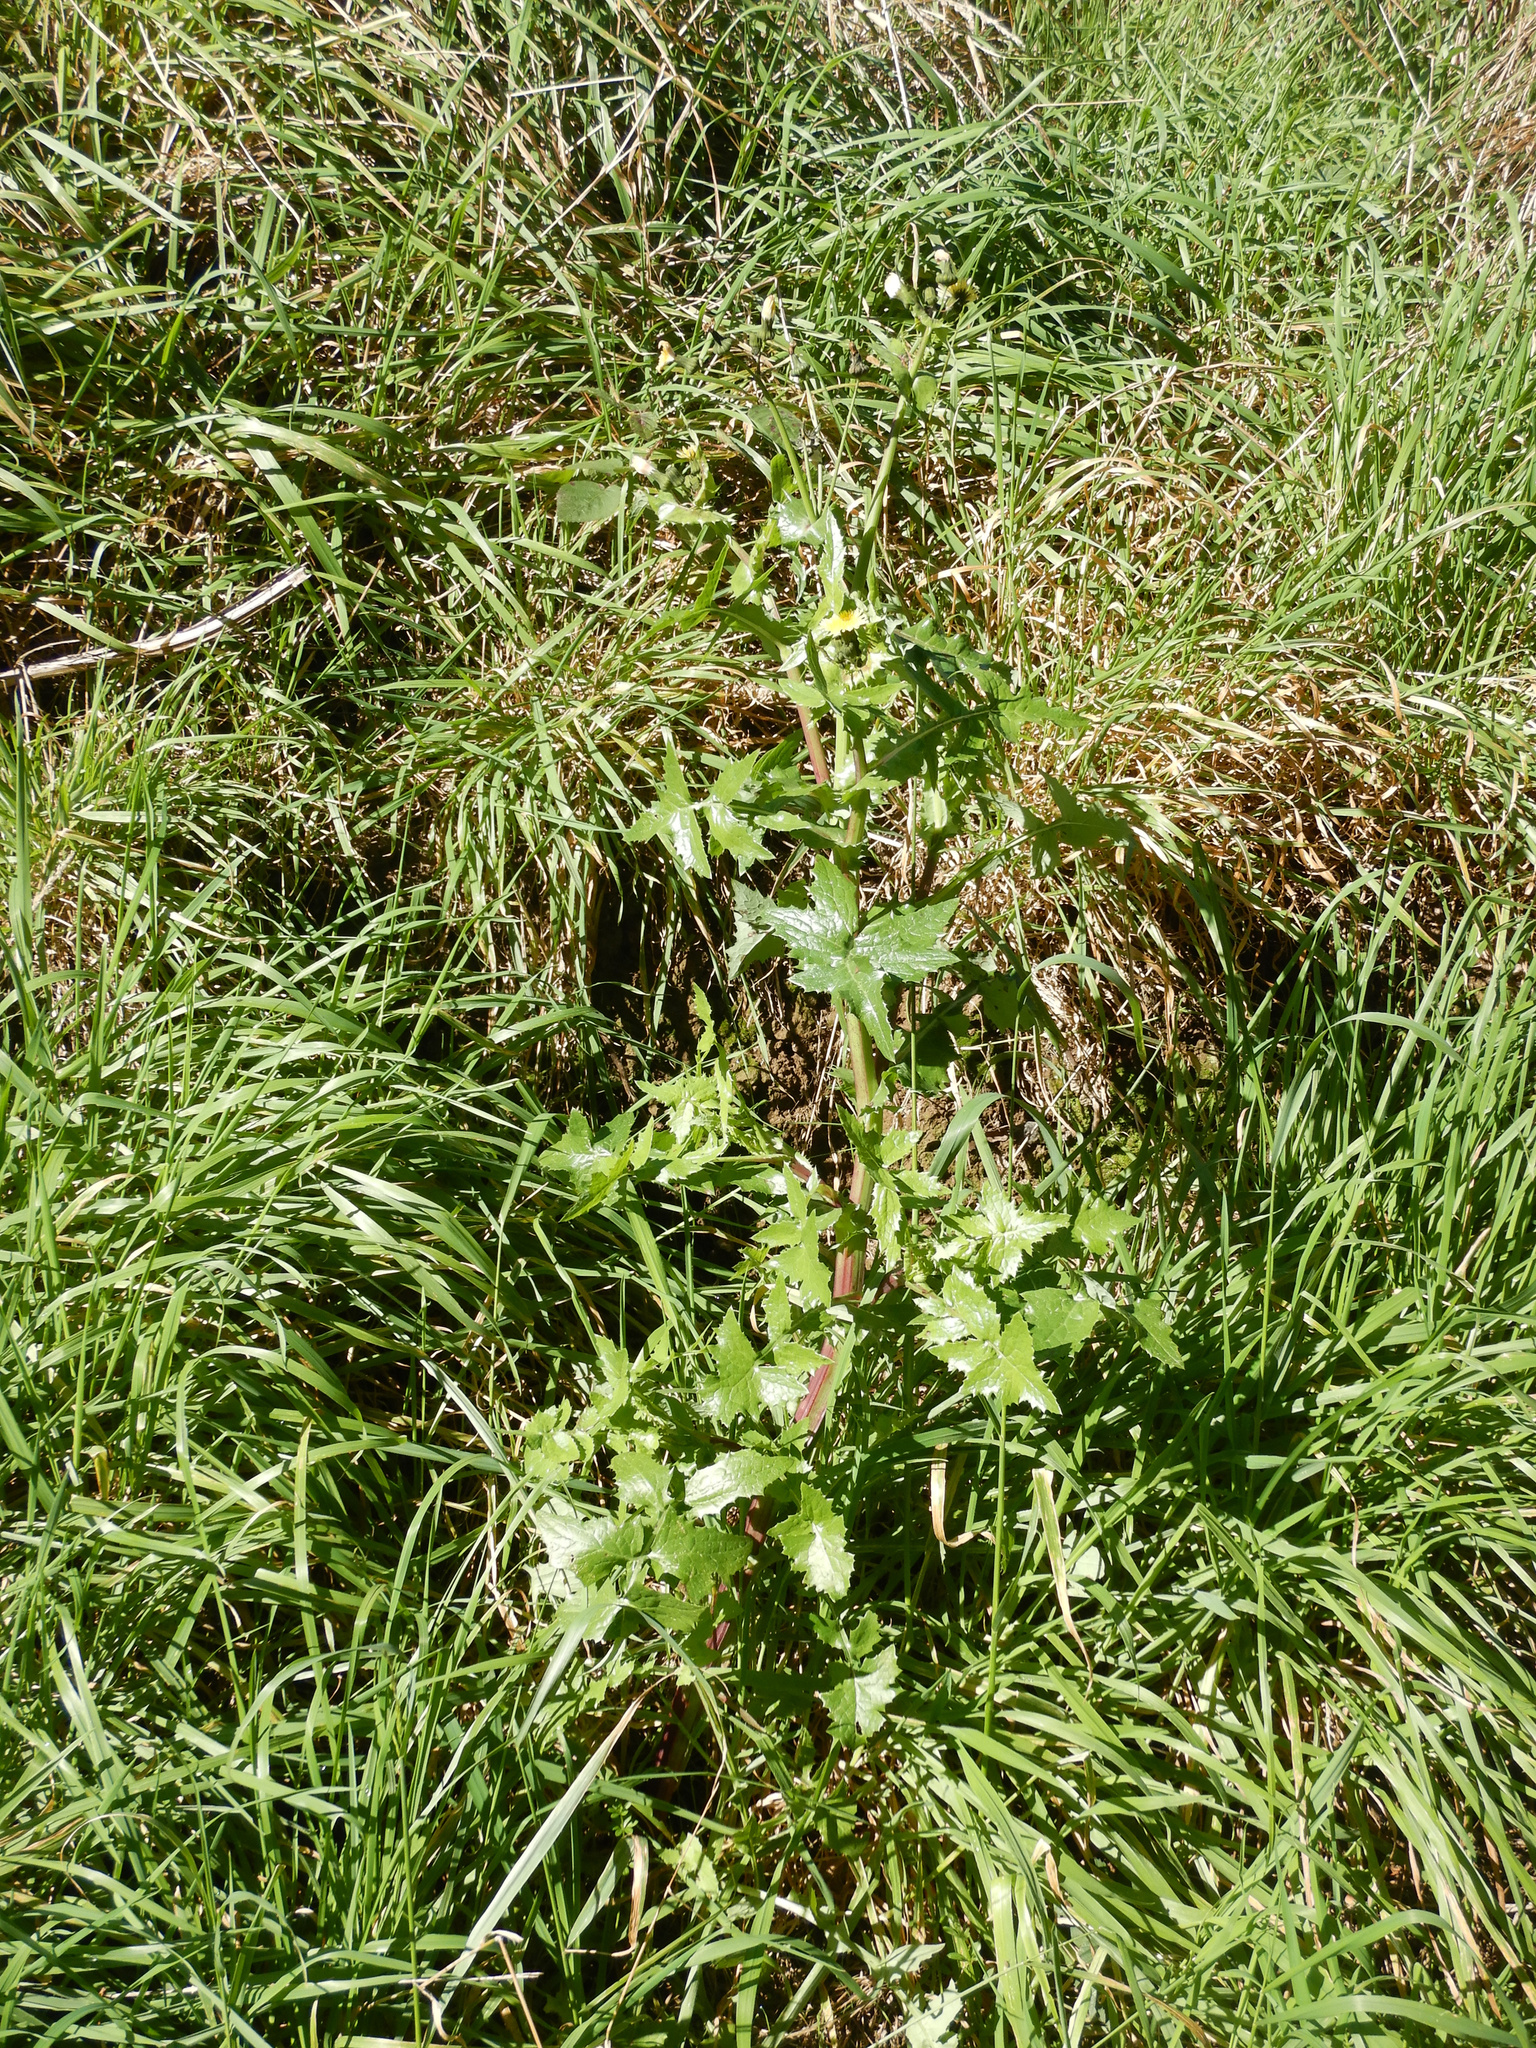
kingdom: Plantae
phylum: Tracheophyta
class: Magnoliopsida
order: Asterales
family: Asteraceae
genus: Sonchus
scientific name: Sonchus asper
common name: Prickly sow-thistle
